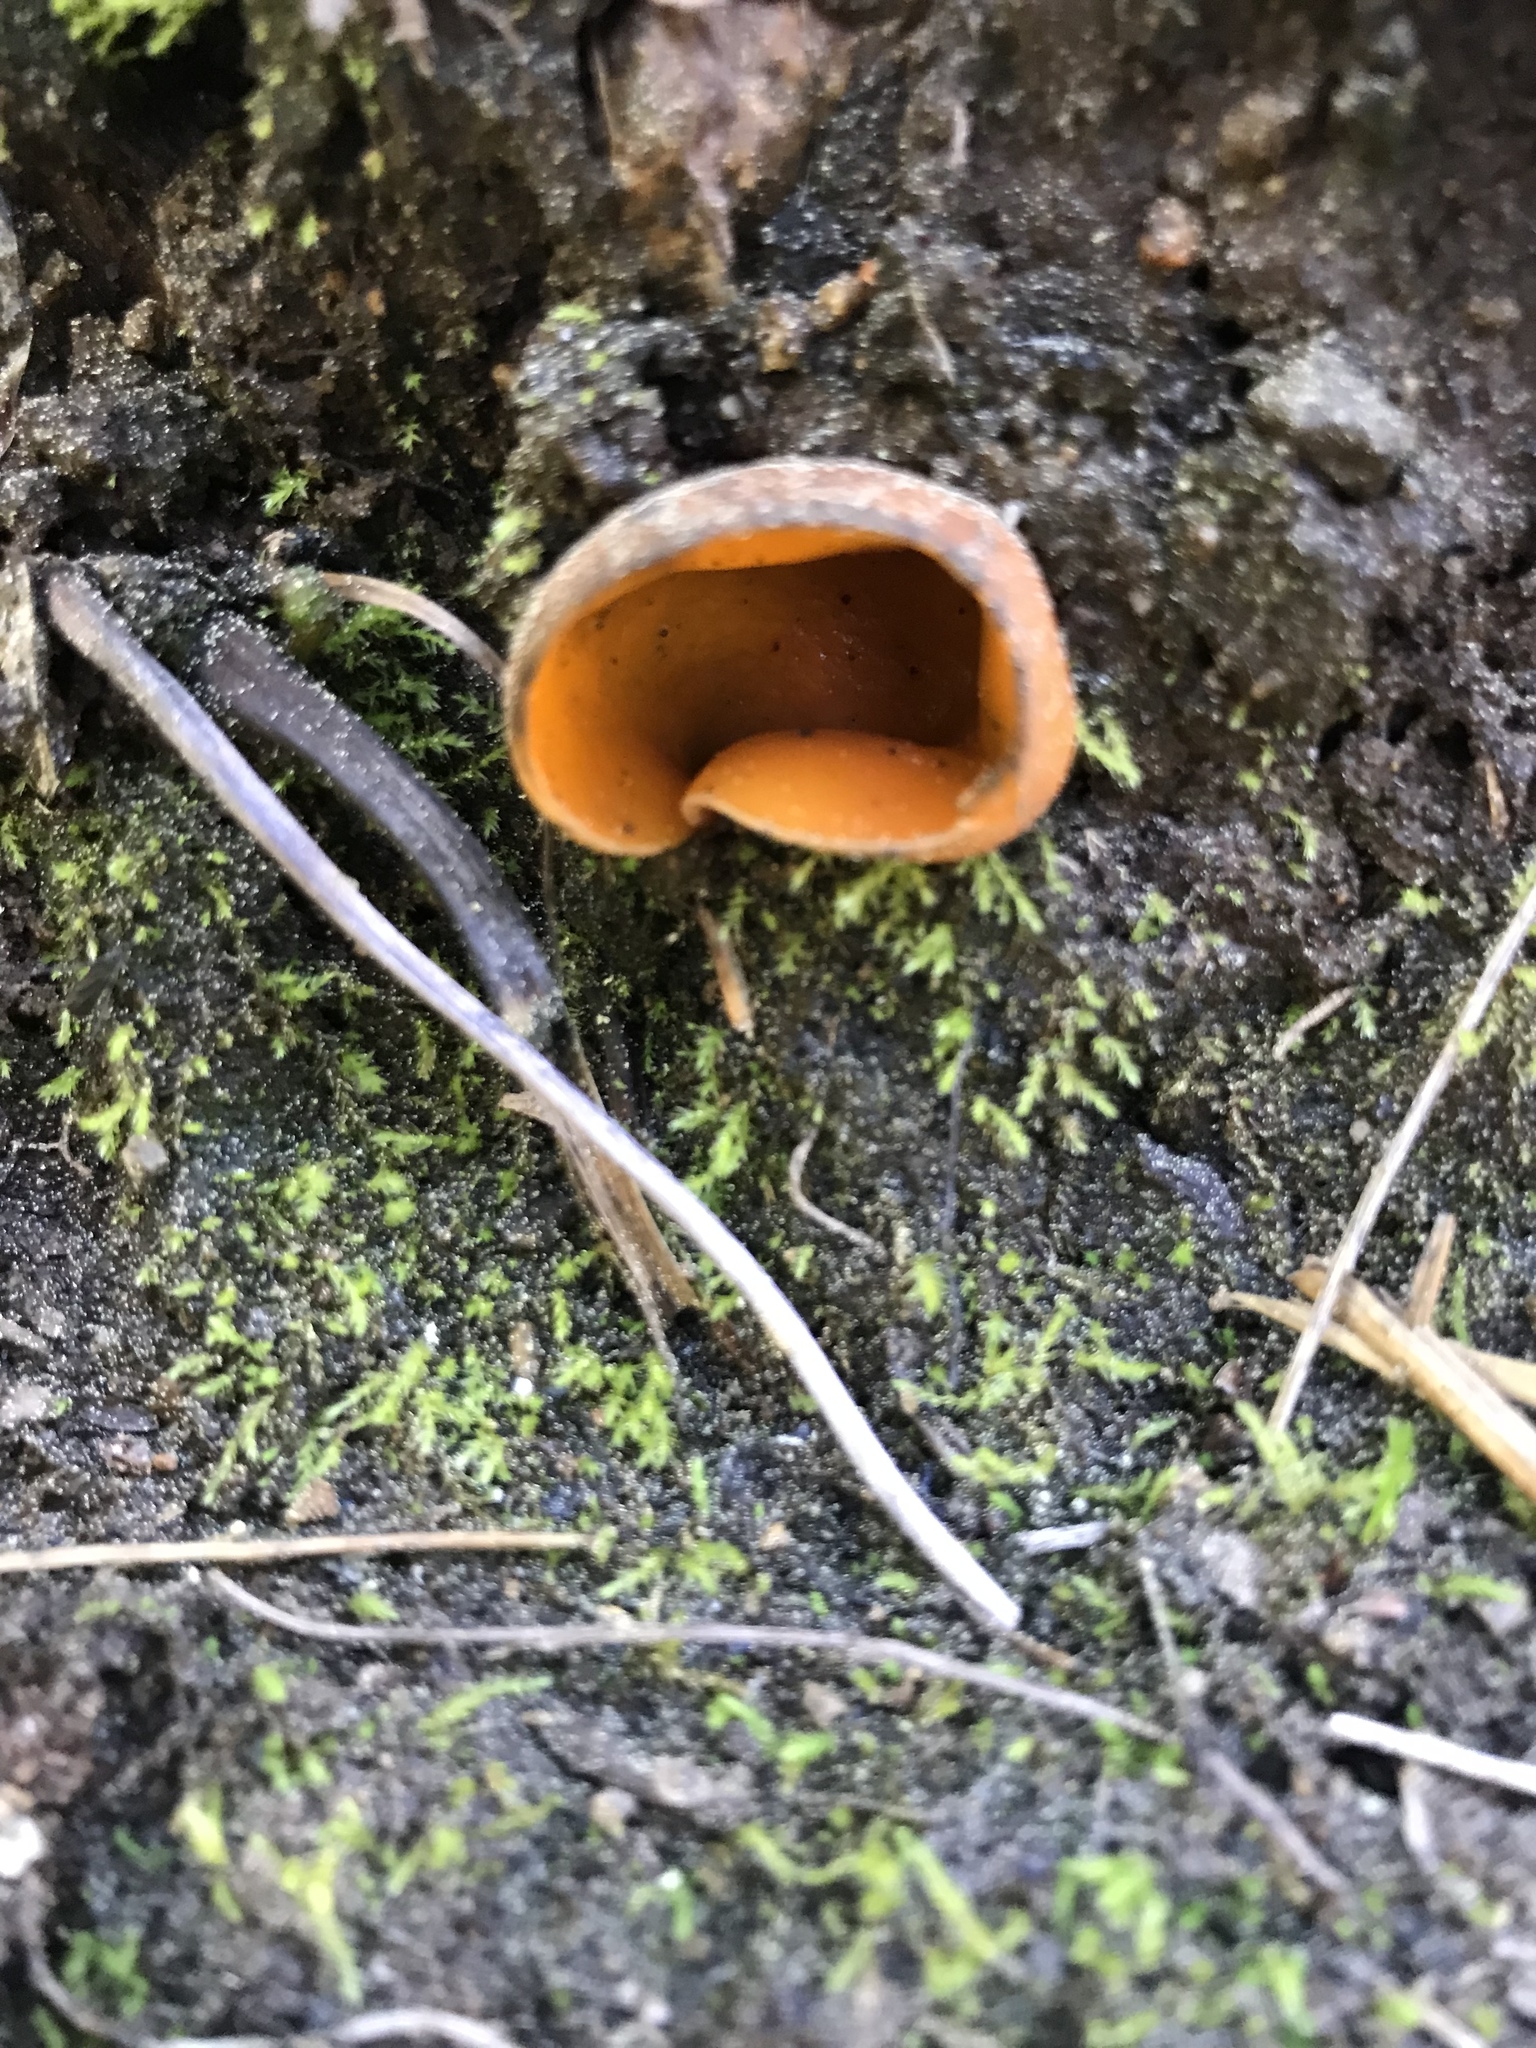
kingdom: Fungi
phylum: Ascomycota
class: Pezizomycetes
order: Pezizales
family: Caloscyphaceae
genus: Caloscypha
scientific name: Caloscypha fulgens
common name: Golden cup
